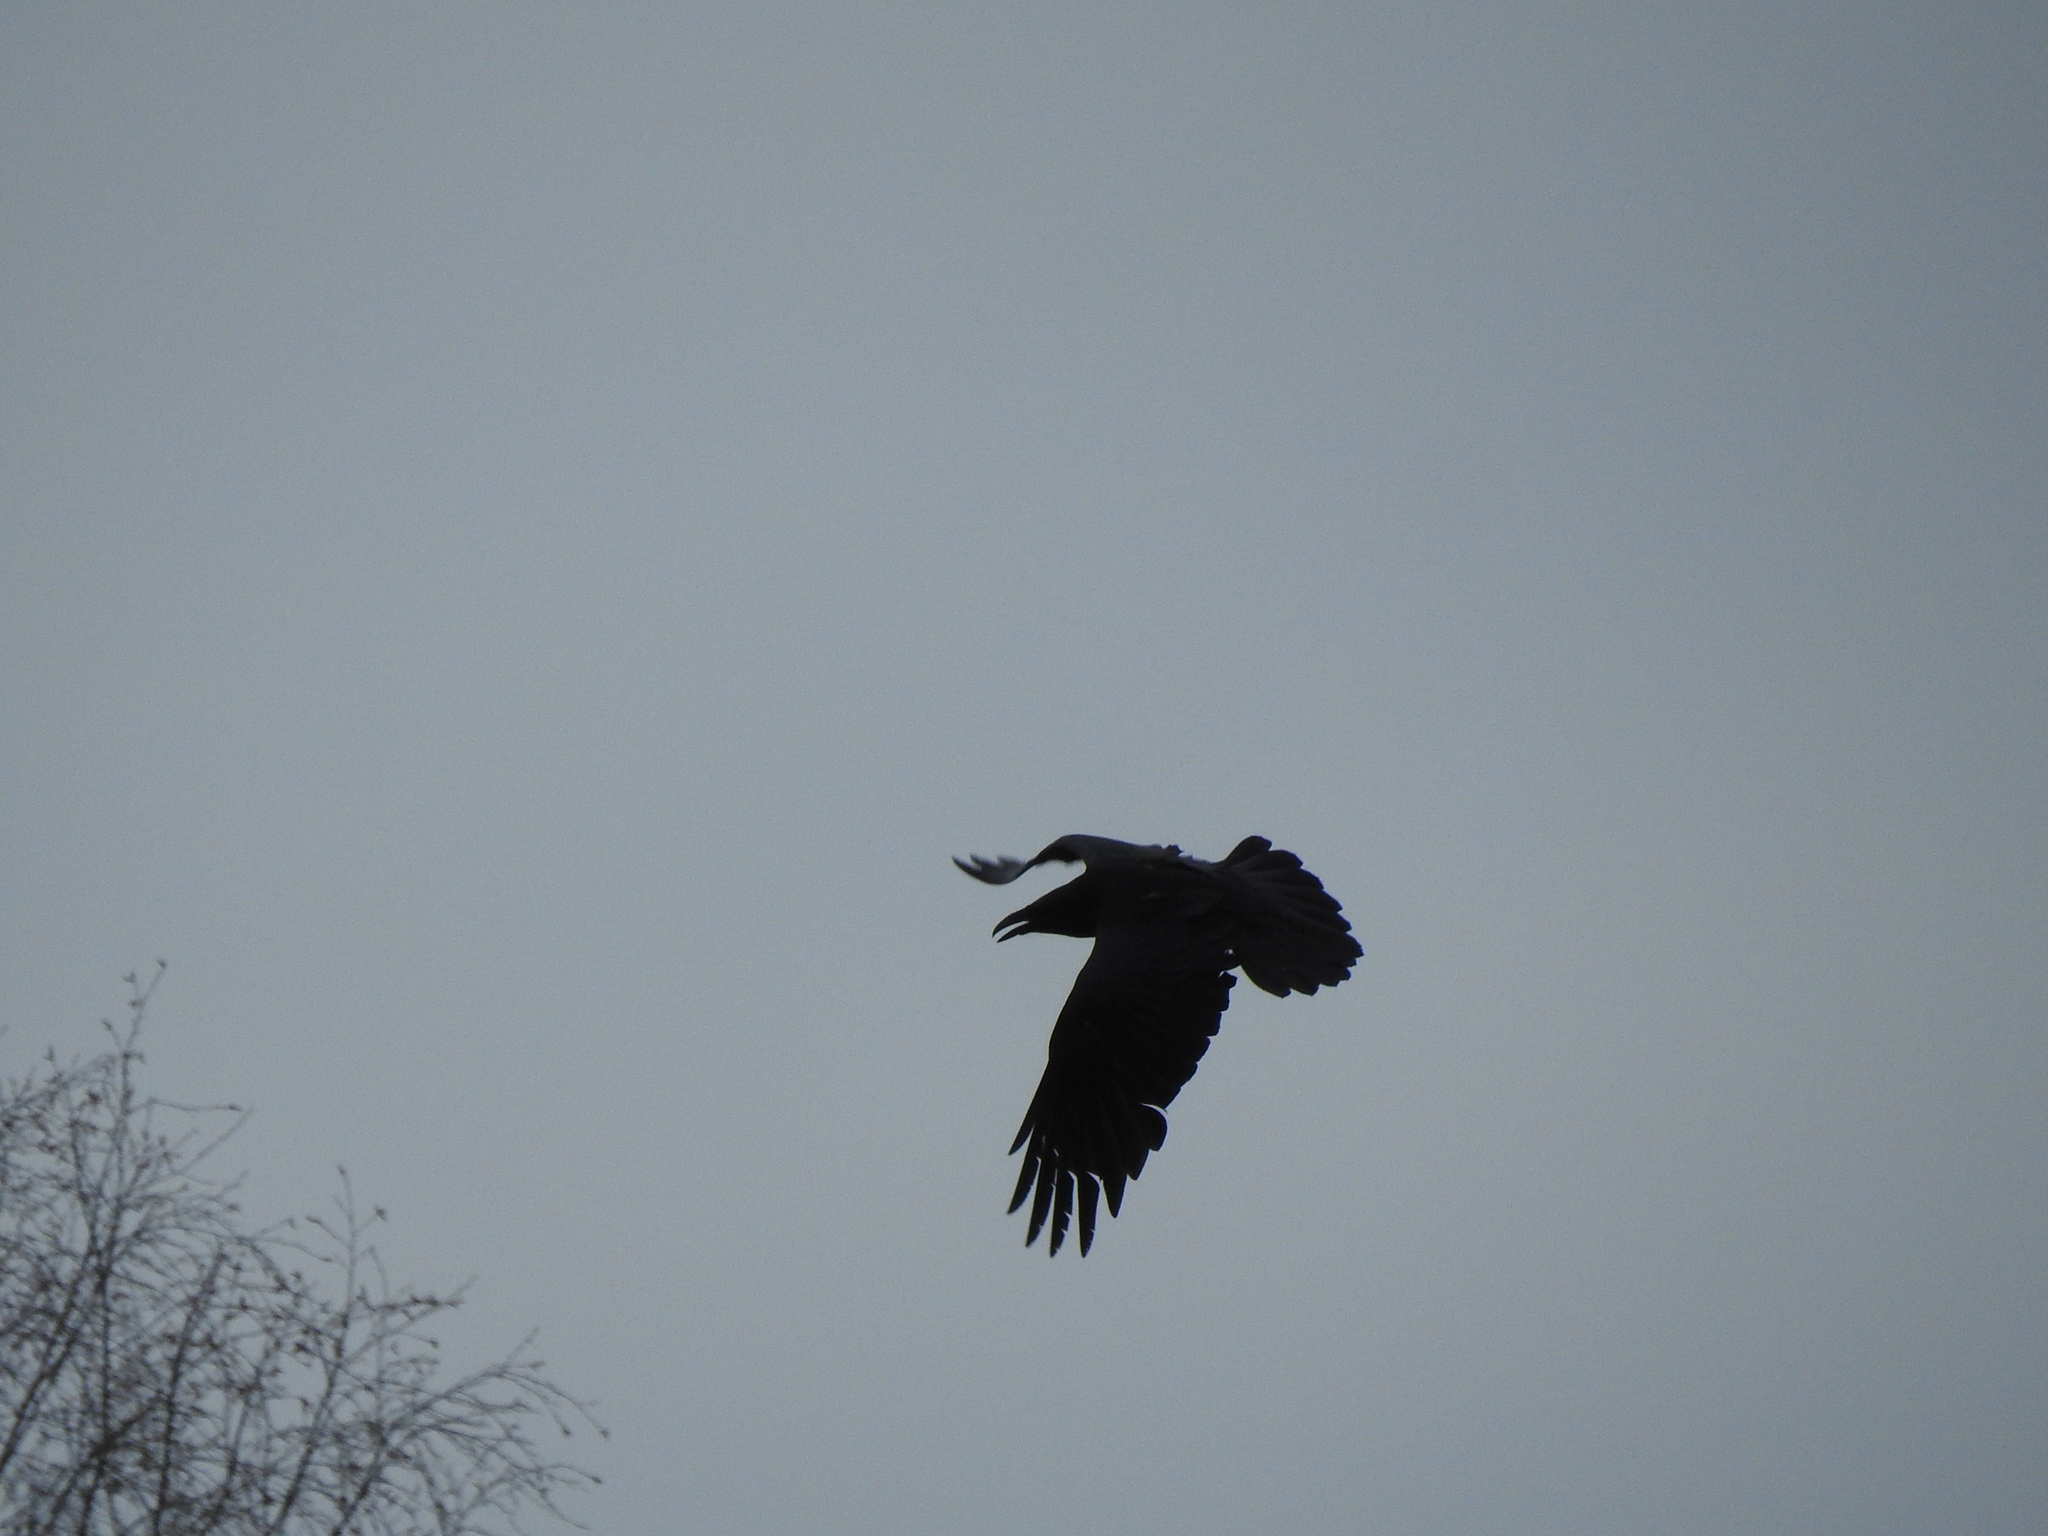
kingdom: Animalia
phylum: Chordata
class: Aves
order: Passeriformes
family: Corvidae
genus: Corvus
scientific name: Corvus corax
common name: Common raven
